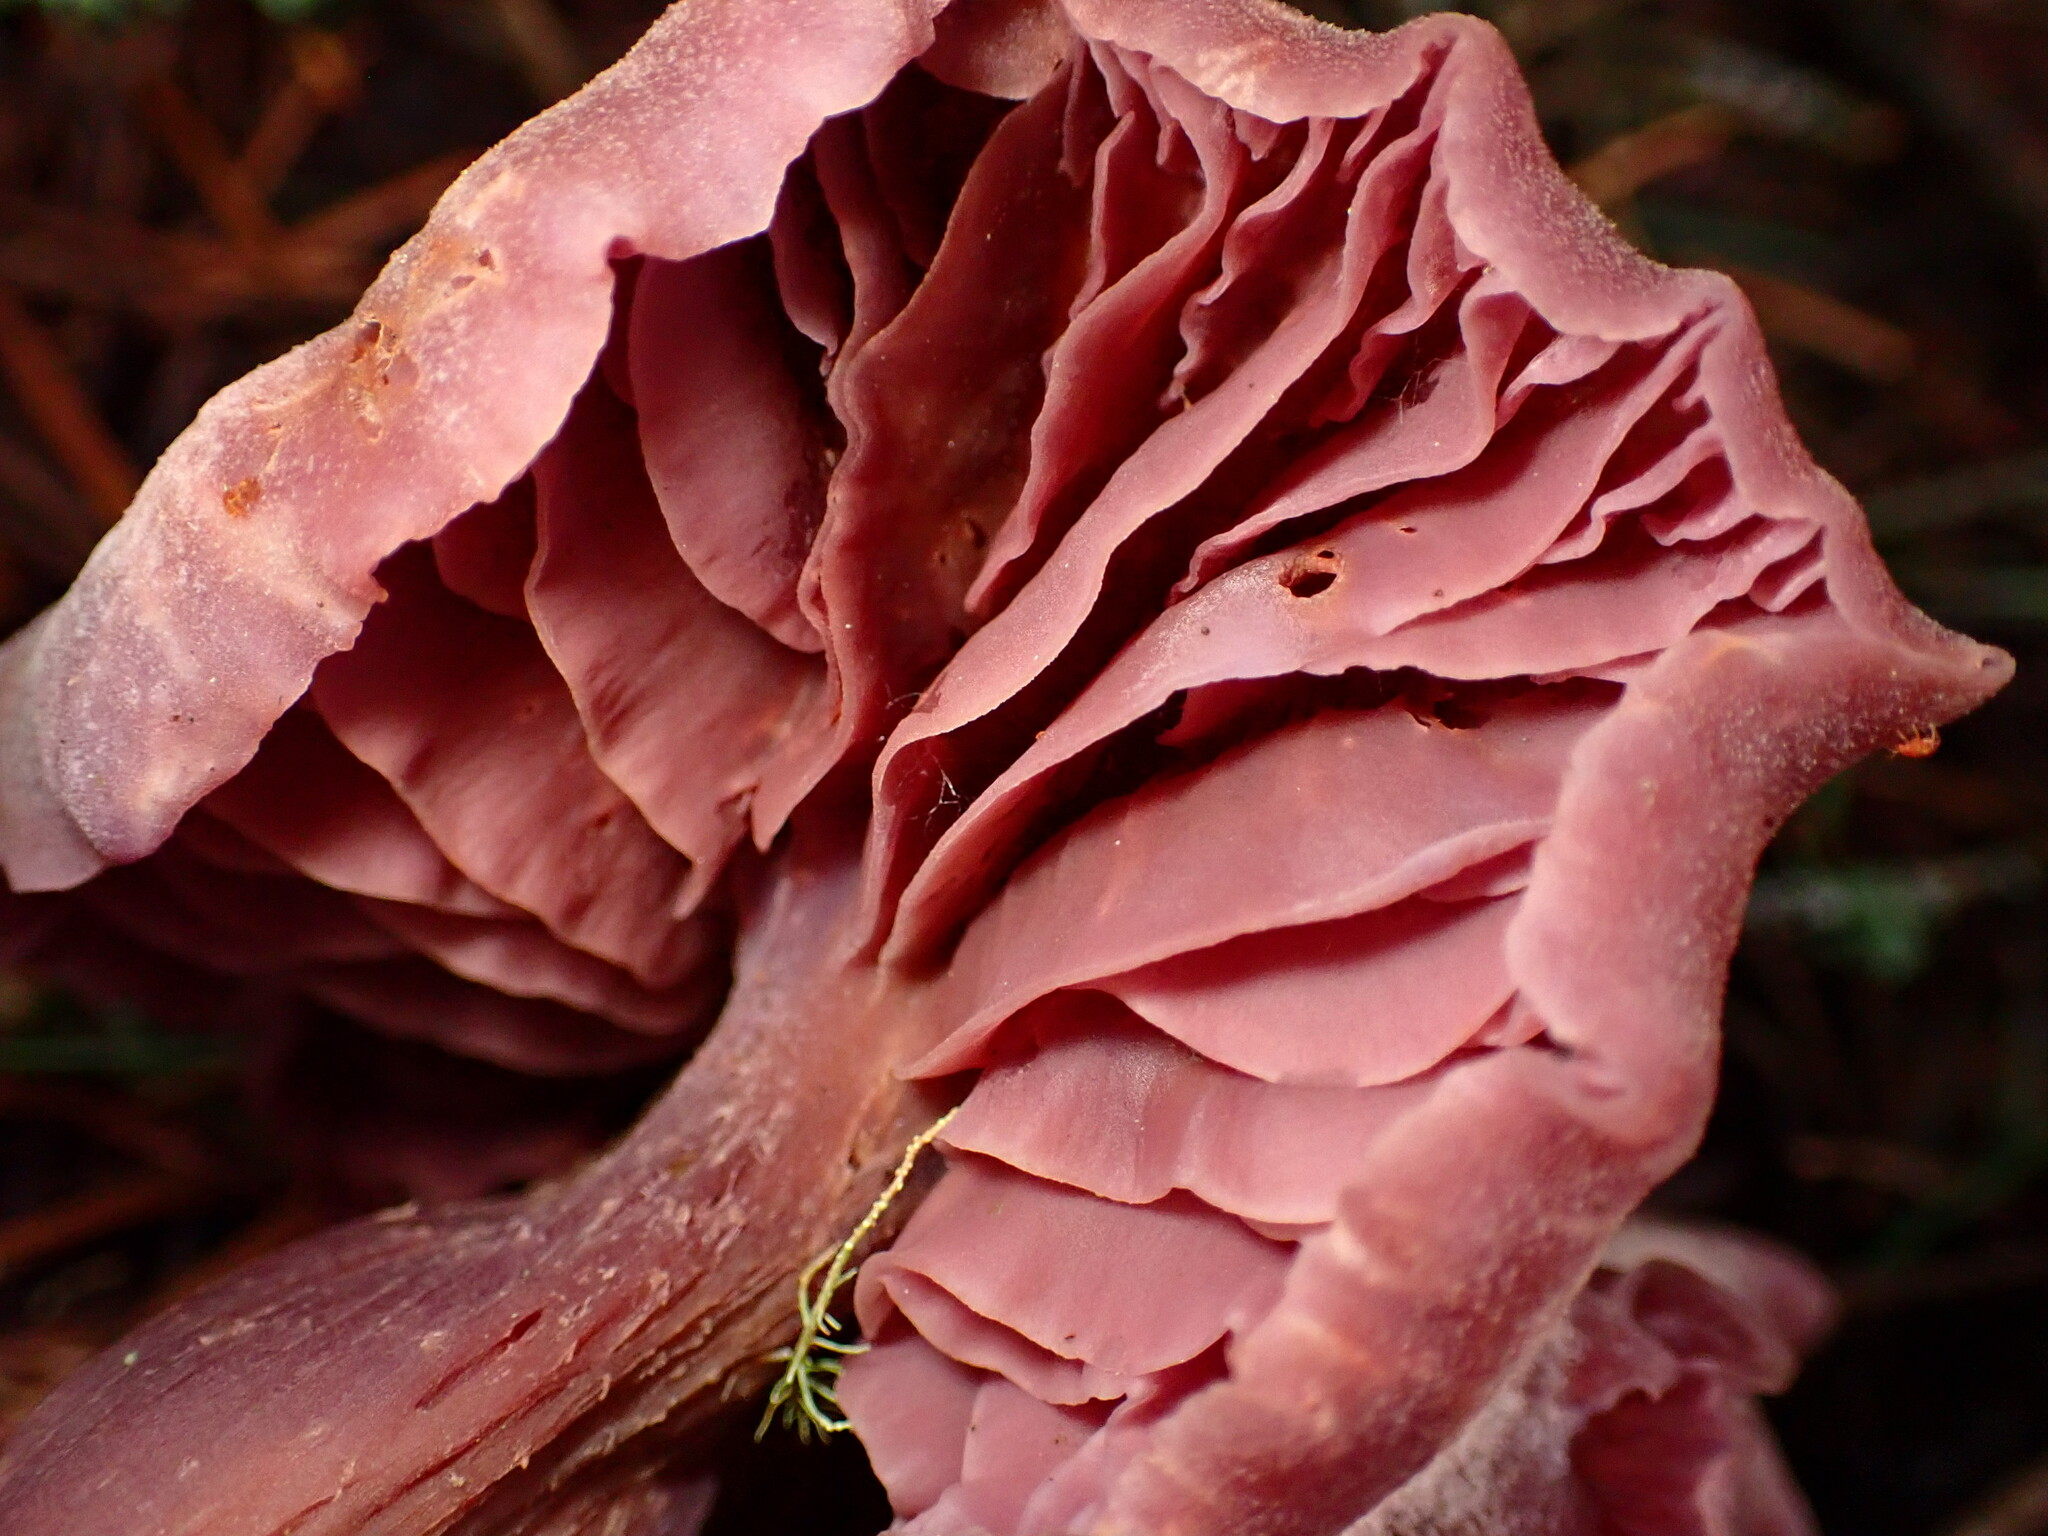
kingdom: Fungi
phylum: Basidiomycota
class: Agaricomycetes
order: Agaricales
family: Hydnangiaceae
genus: Laccaria
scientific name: Laccaria amethysteo-occidentalis
